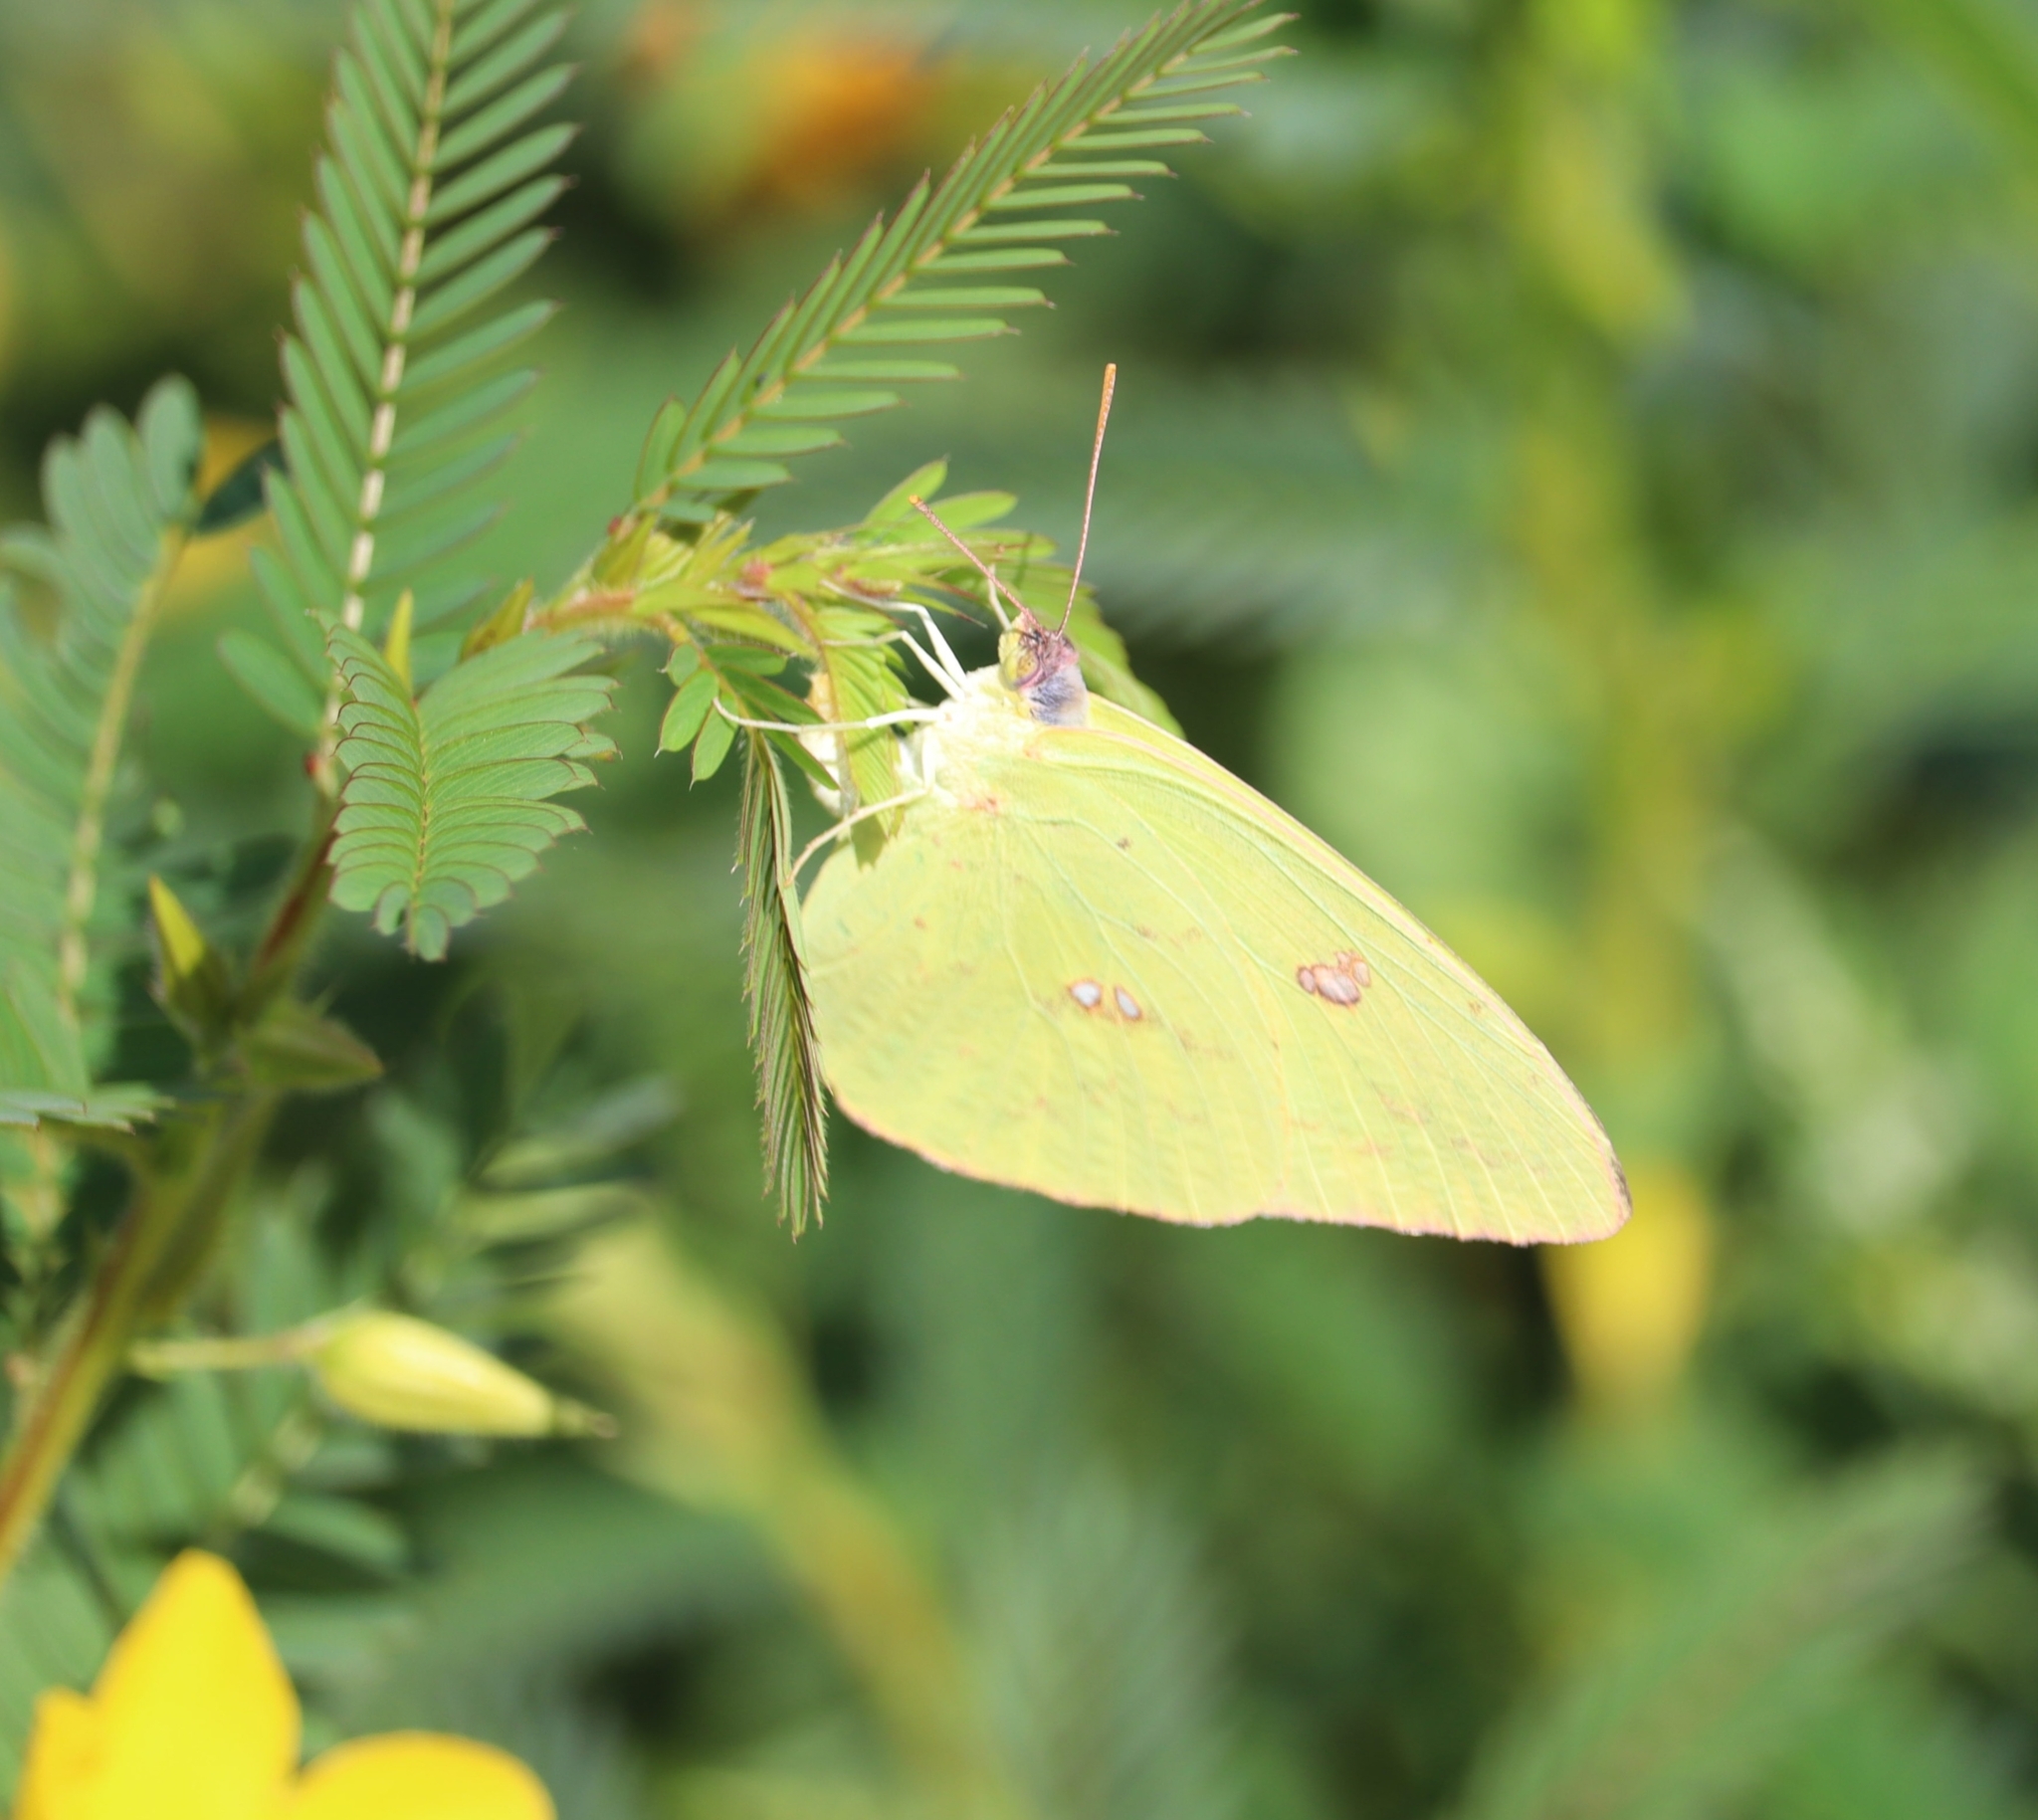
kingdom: Animalia
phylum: Arthropoda
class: Insecta
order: Lepidoptera
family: Pieridae
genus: Phoebis
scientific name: Phoebis sennae
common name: Cloudless sulphur
